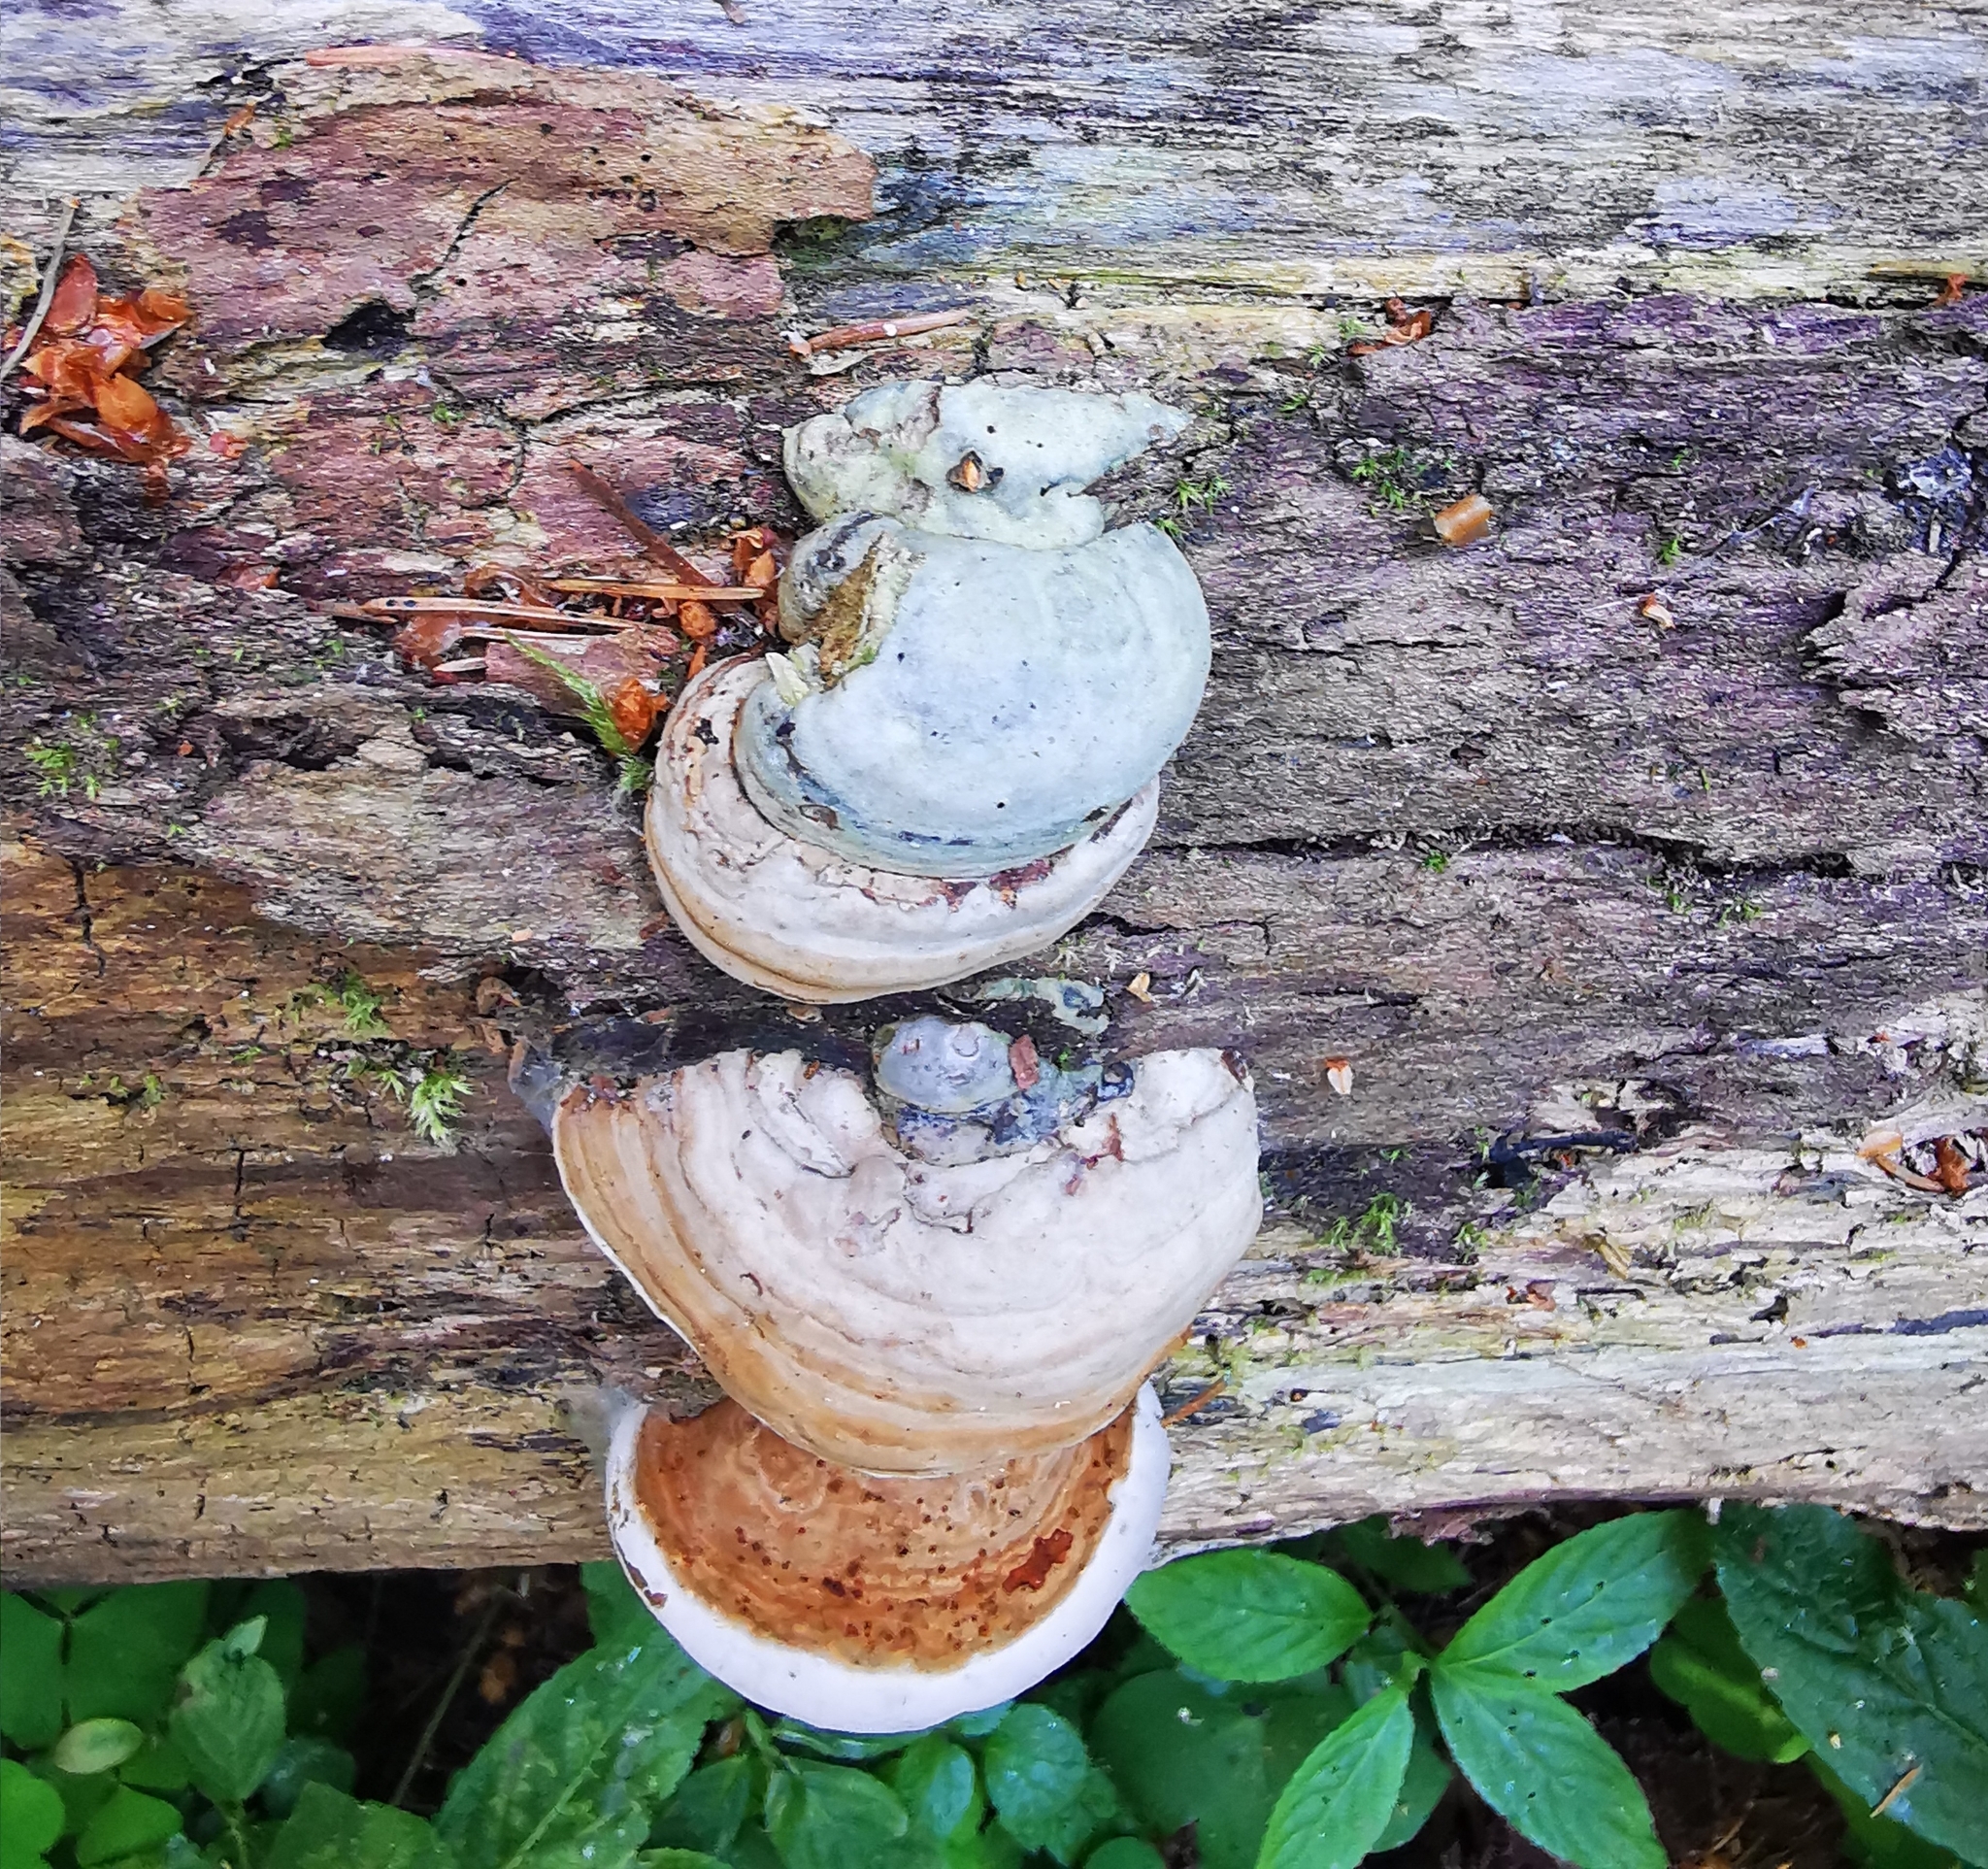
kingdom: Fungi
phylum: Basidiomycota
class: Agaricomycetes
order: Polyporales
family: Polyporaceae
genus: Fomes
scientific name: Fomes fomentarius
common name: Hoof fungus
